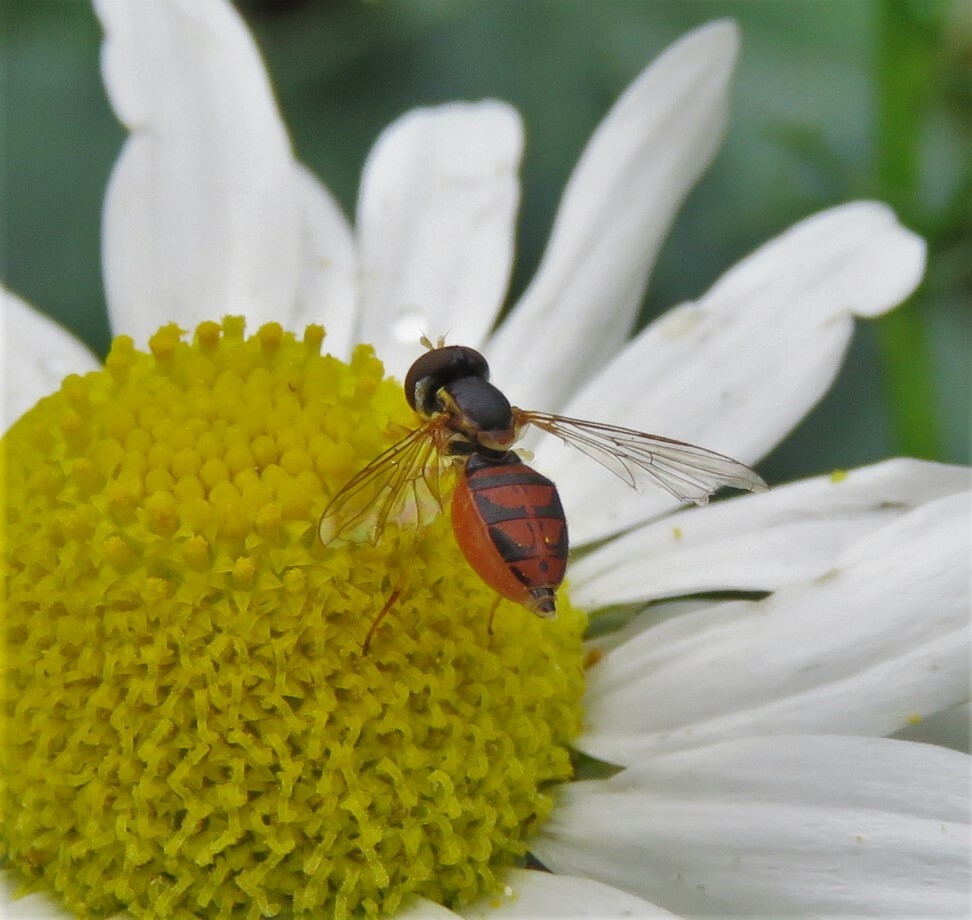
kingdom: Animalia
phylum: Arthropoda
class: Insecta
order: Diptera
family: Syrphidae
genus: Toxomerus
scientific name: Toxomerus marginatus
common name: Syrphid fly
